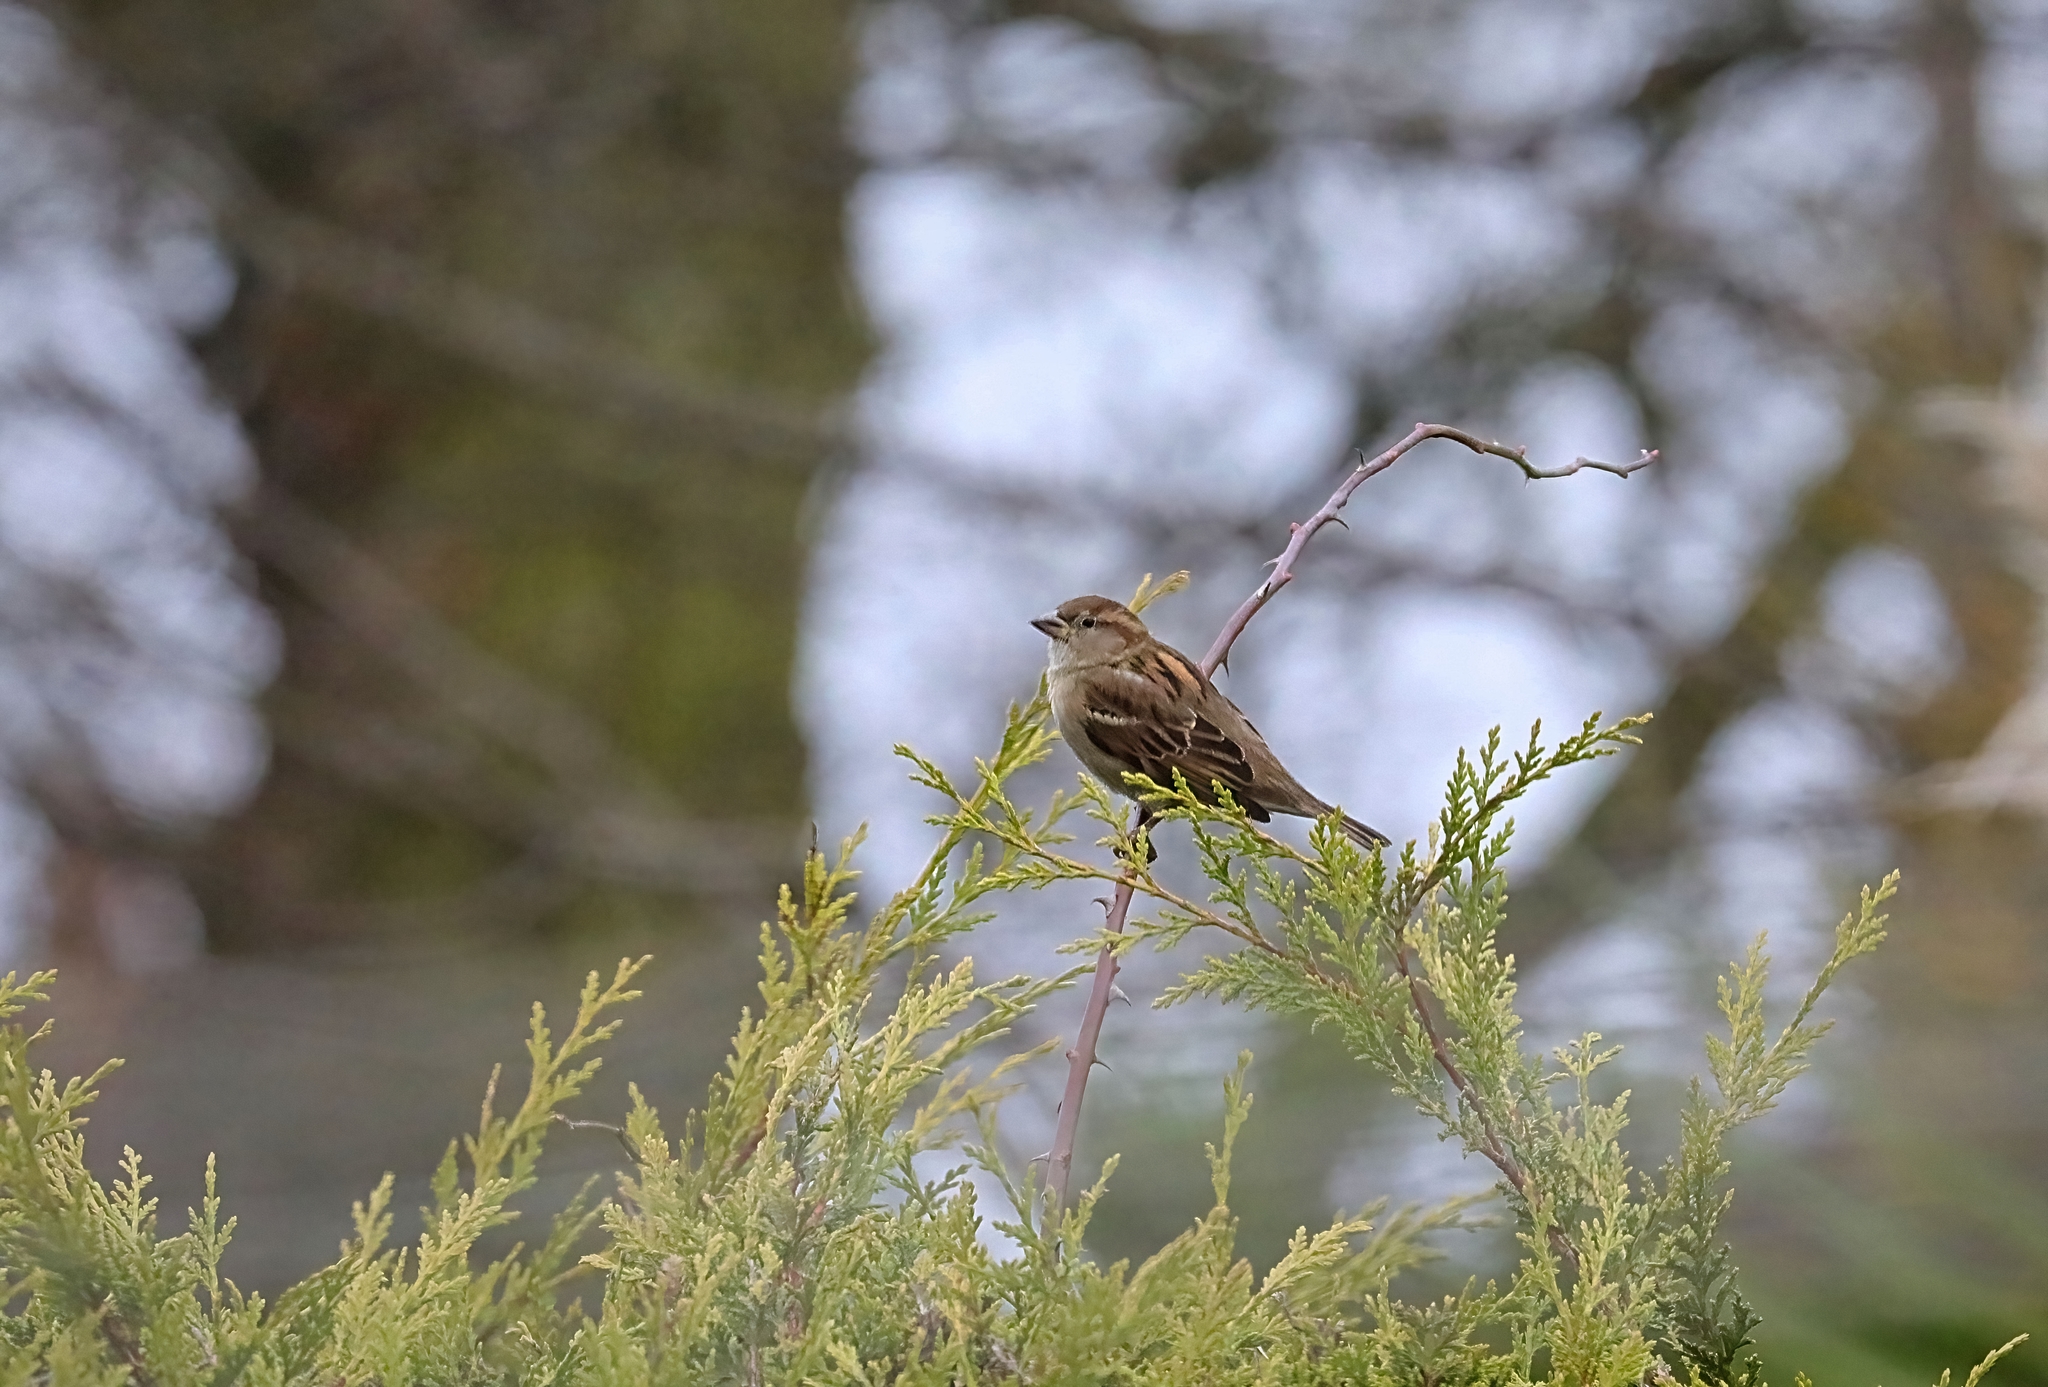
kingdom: Animalia
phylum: Chordata
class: Aves
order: Passeriformes
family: Passeridae
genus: Passer
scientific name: Passer domesticus
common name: House sparrow
